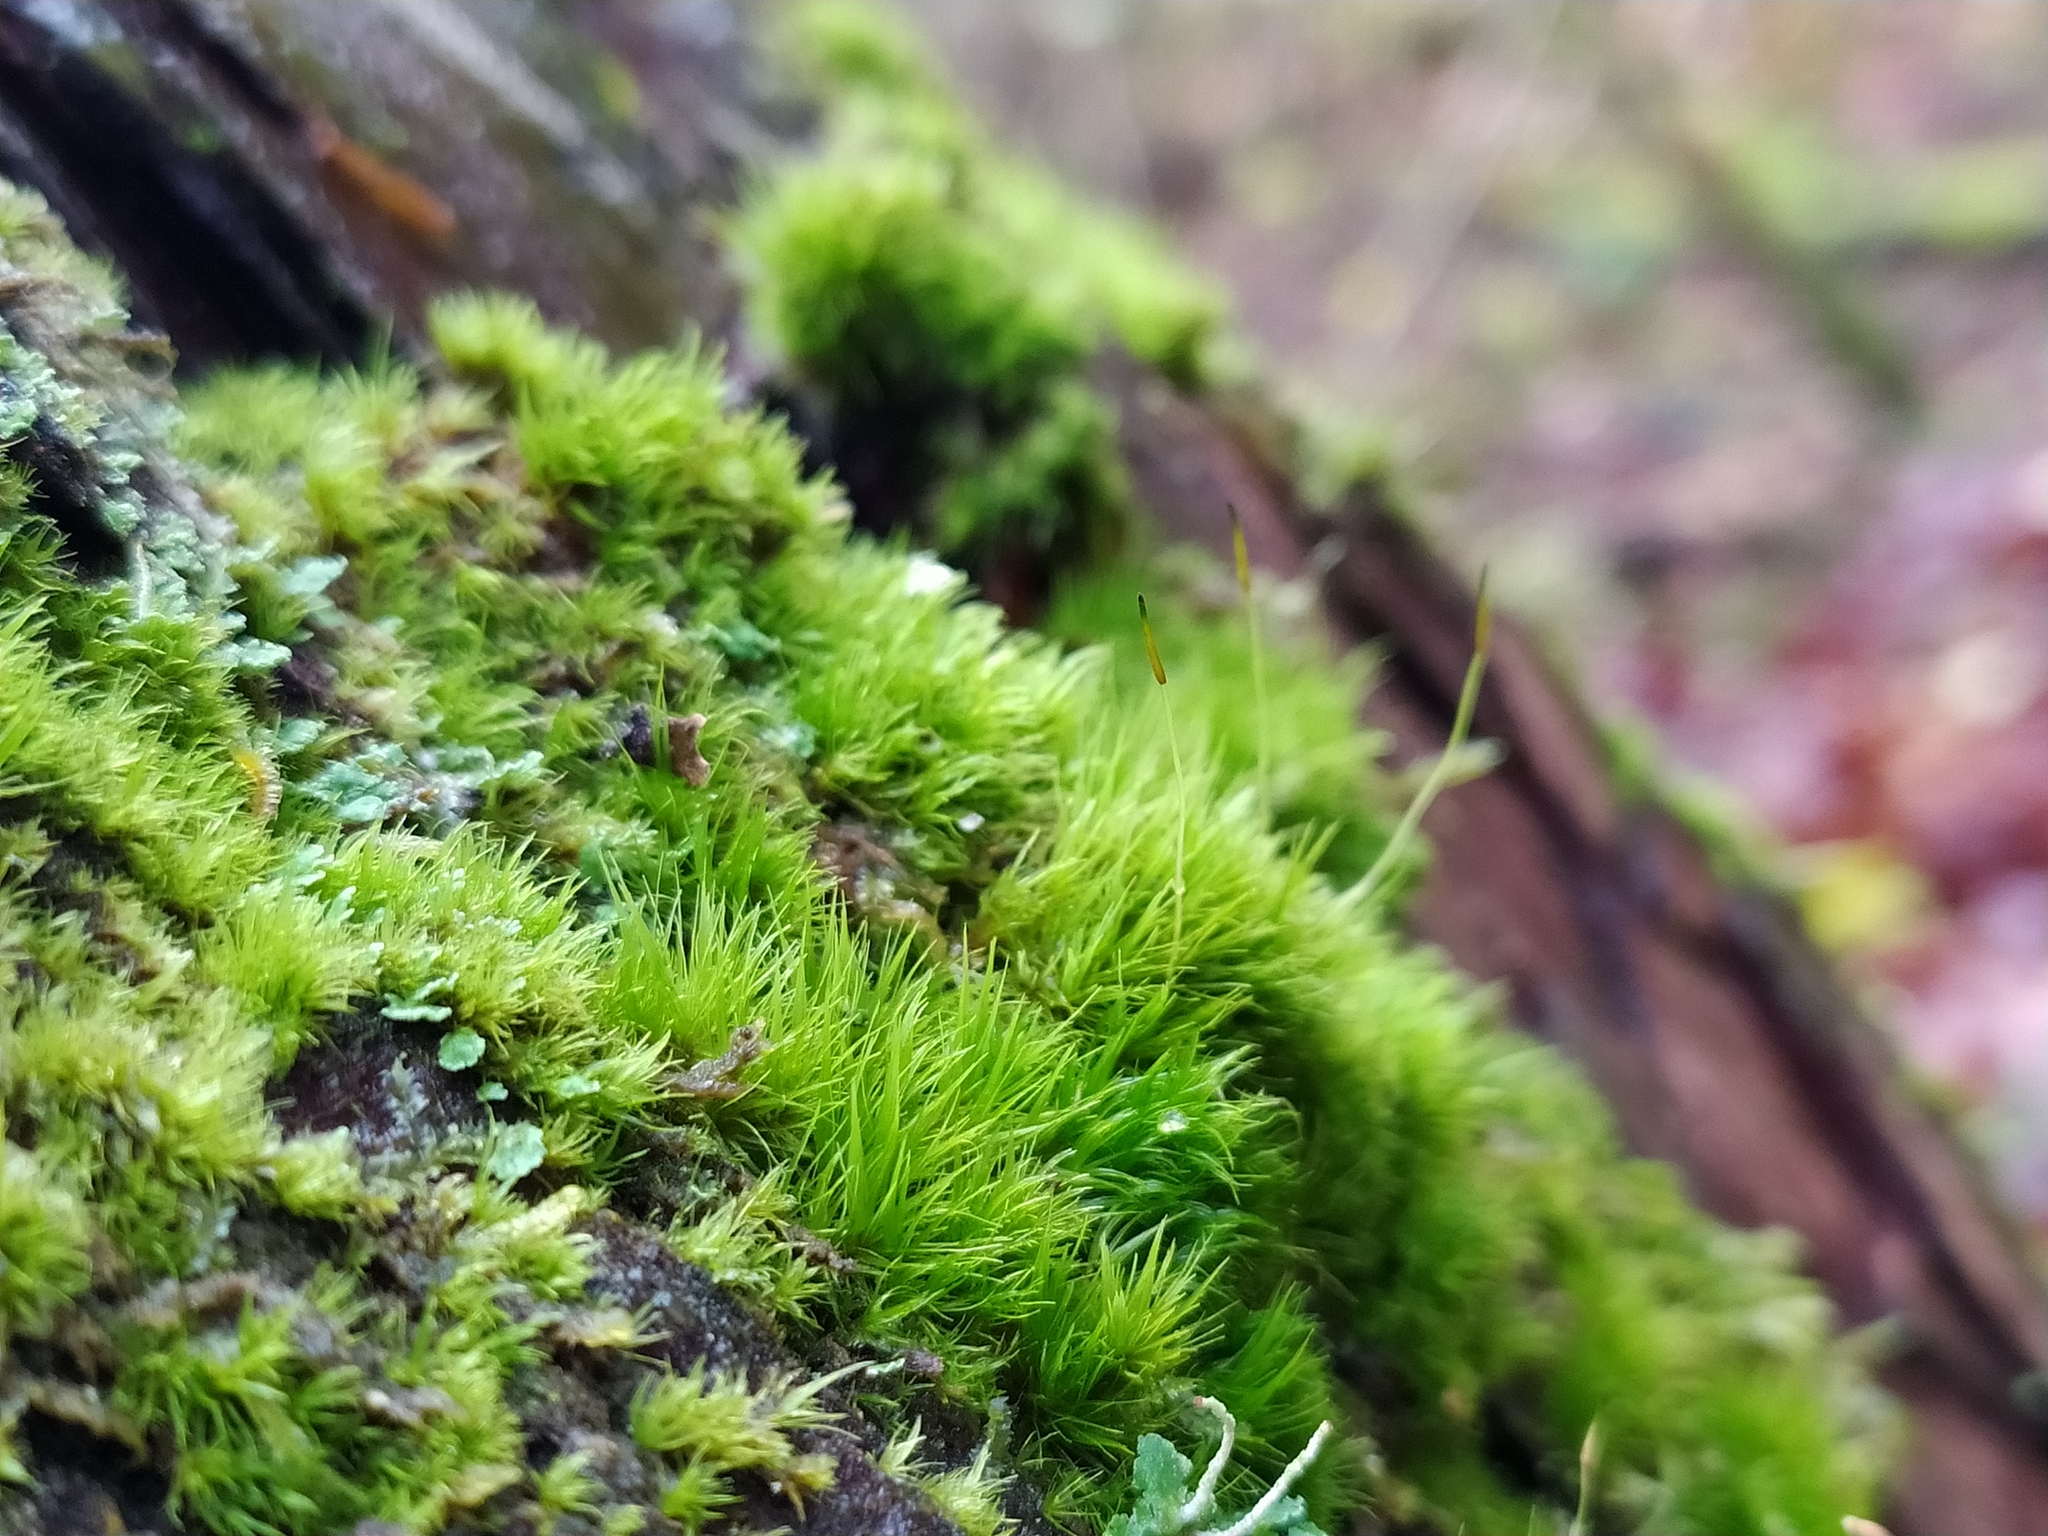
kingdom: Plantae
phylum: Bryophyta
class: Bryopsida
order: Dicranales
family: Dicranaceae
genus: Orthodicranum
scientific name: Orthodicranum tauricum
